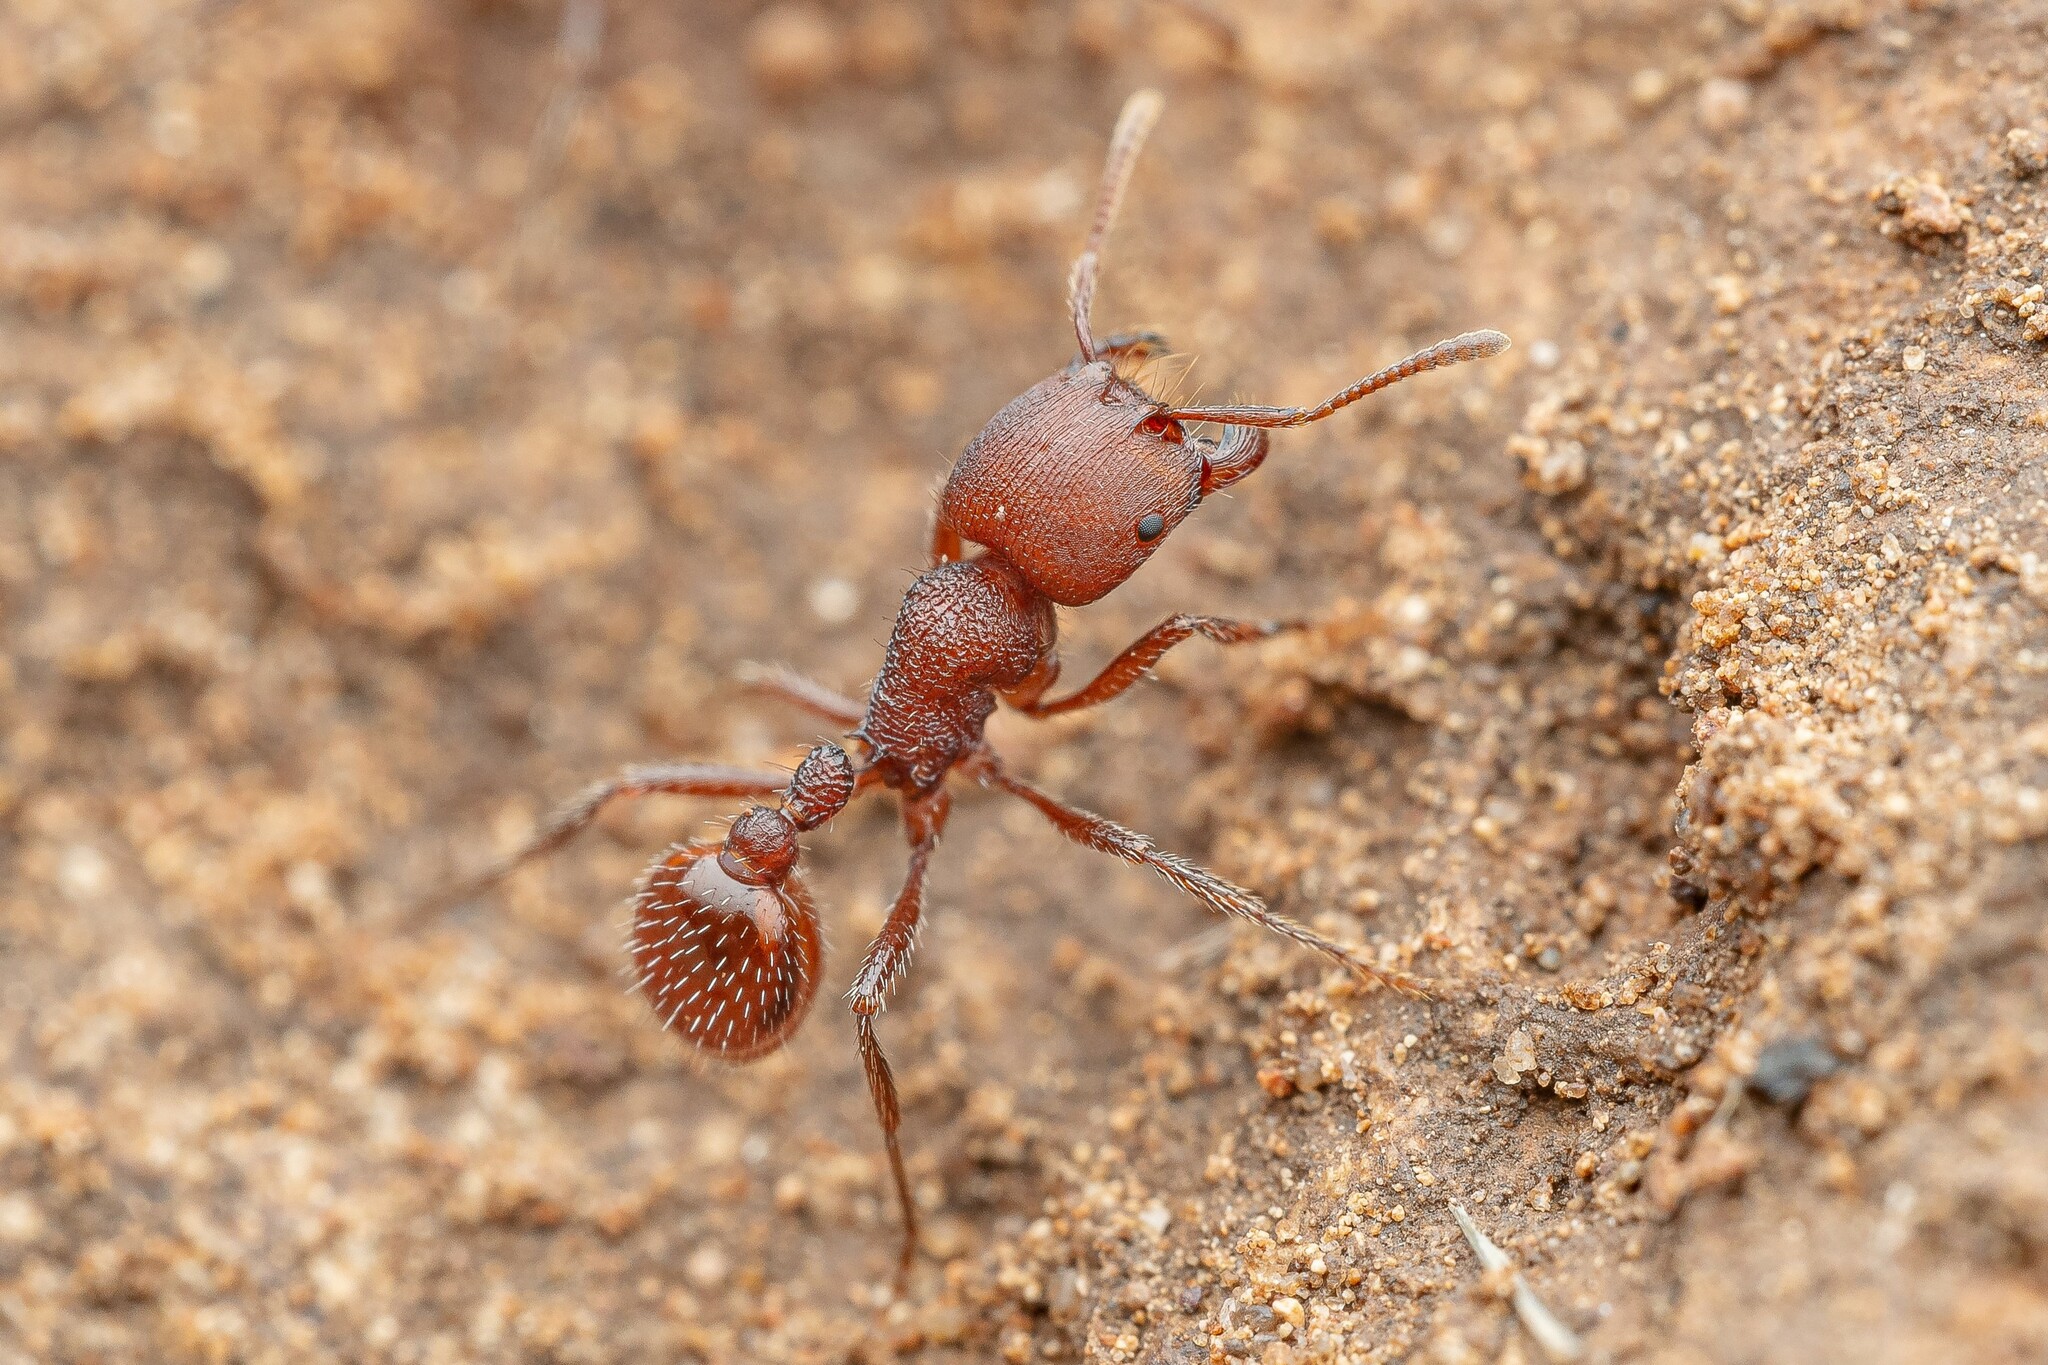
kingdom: Animalia
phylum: Arthropoda
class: Insecta
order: Hymenoptera
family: Formicidae
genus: Pogonomyrmex
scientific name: Pogonomyrmex huachucanus
